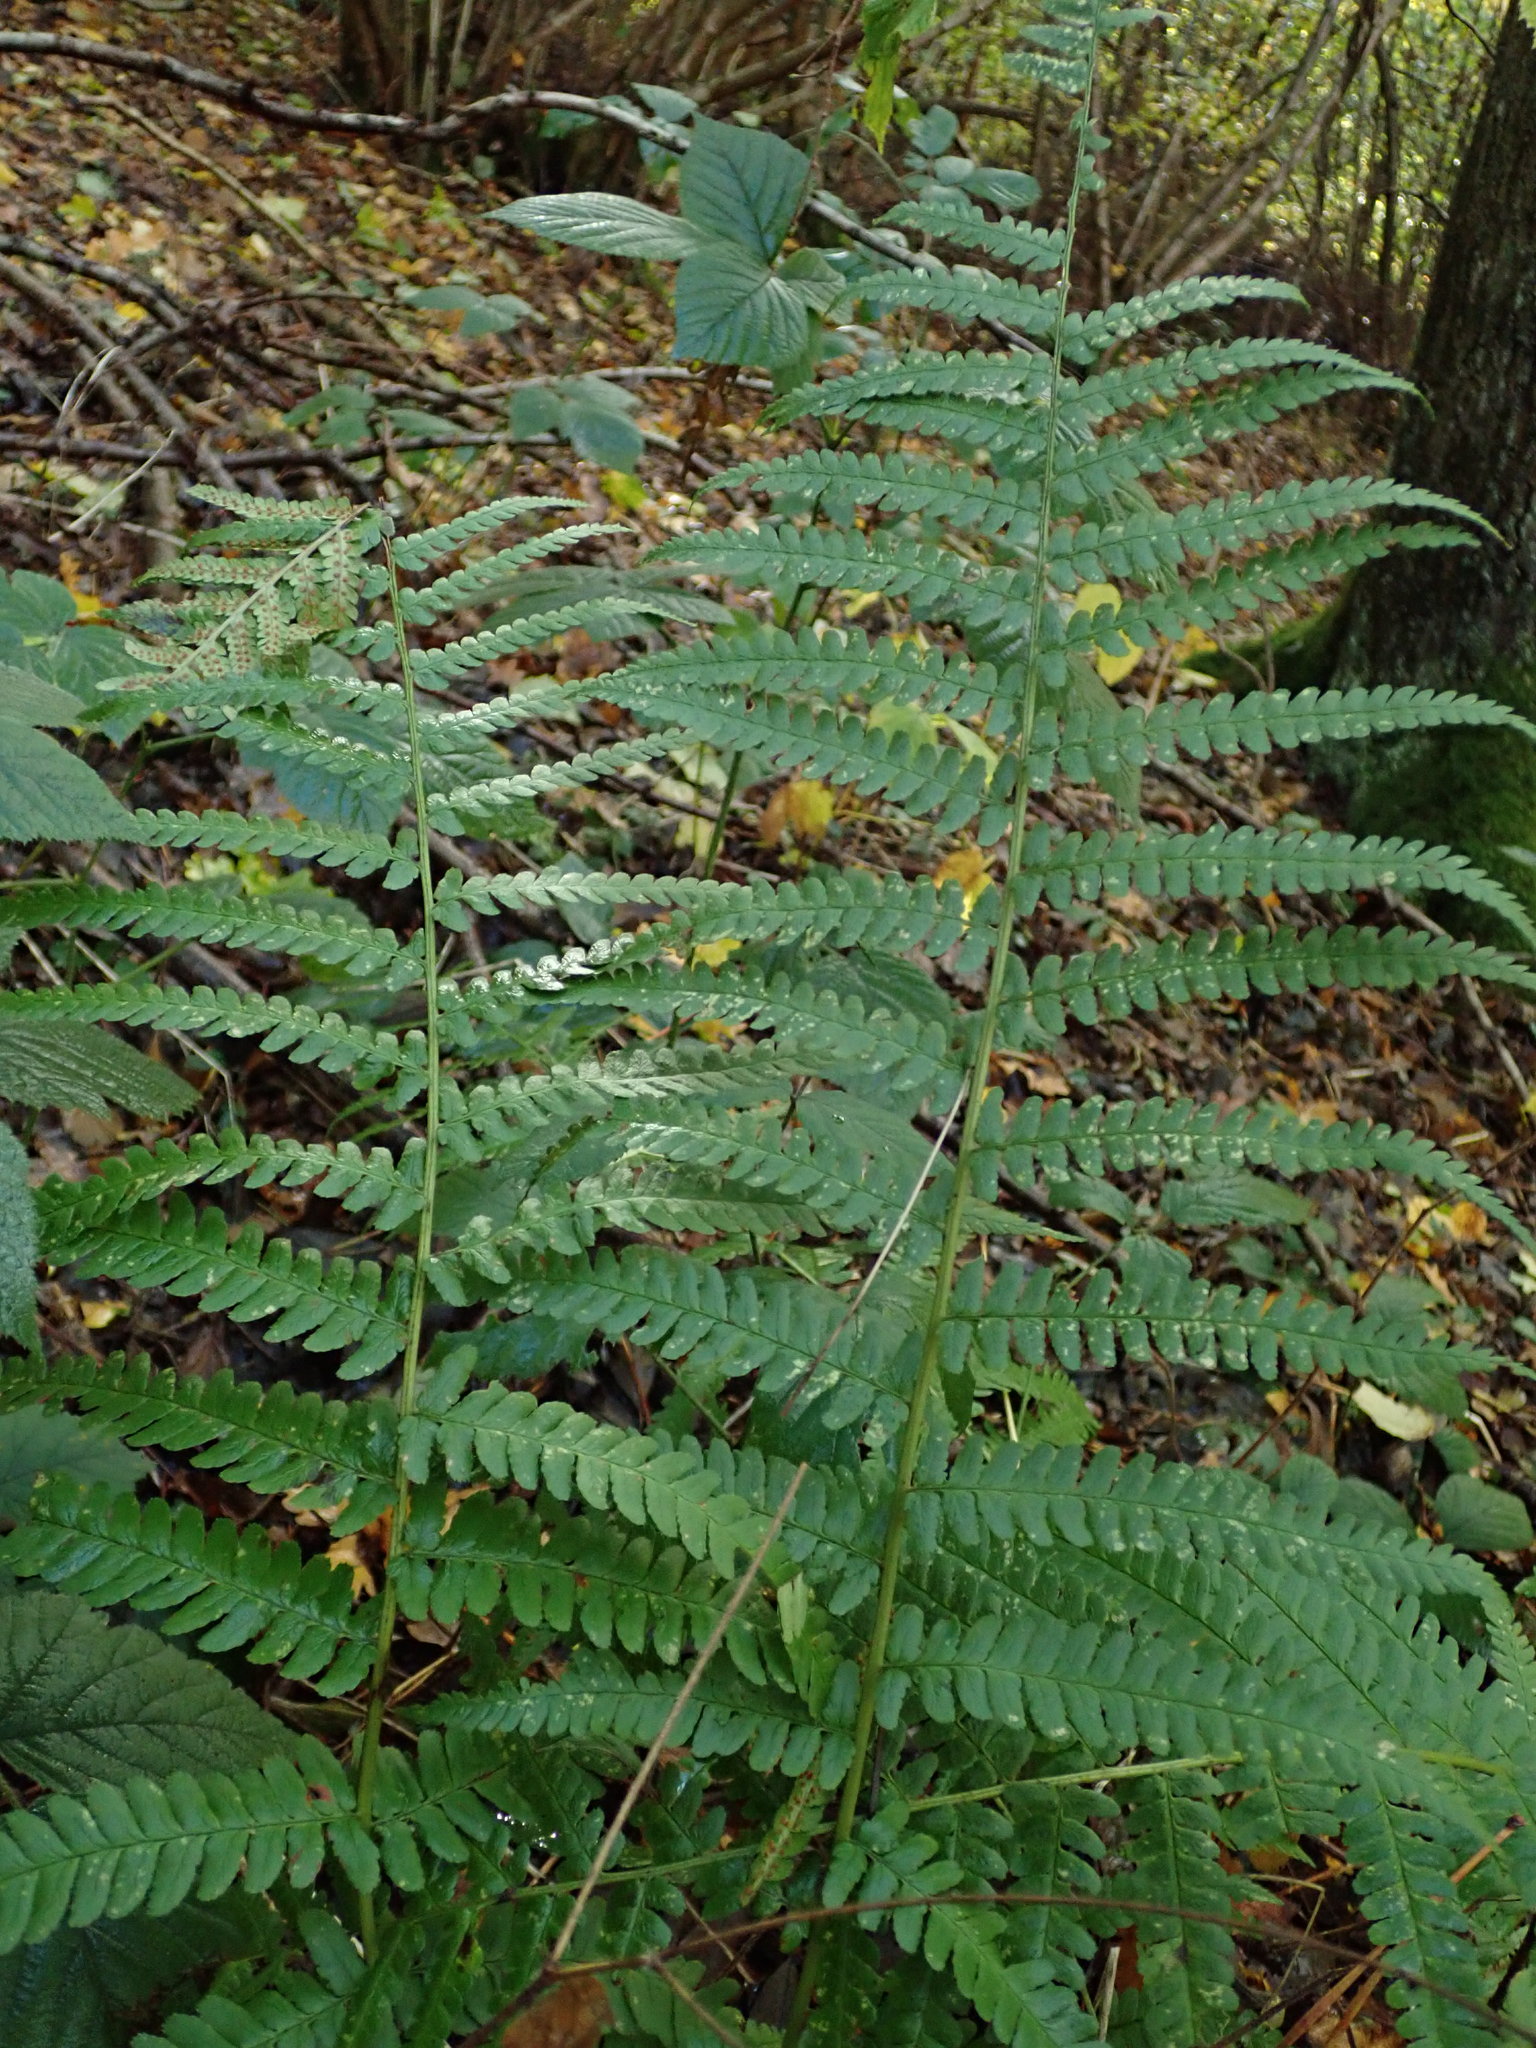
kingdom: Plantae
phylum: Tracheophyta
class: Polypodiopsida
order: Polypodiales
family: Dryopteridaceae
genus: Dryopteris
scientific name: Dryopteris filix-mas
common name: Male fern
